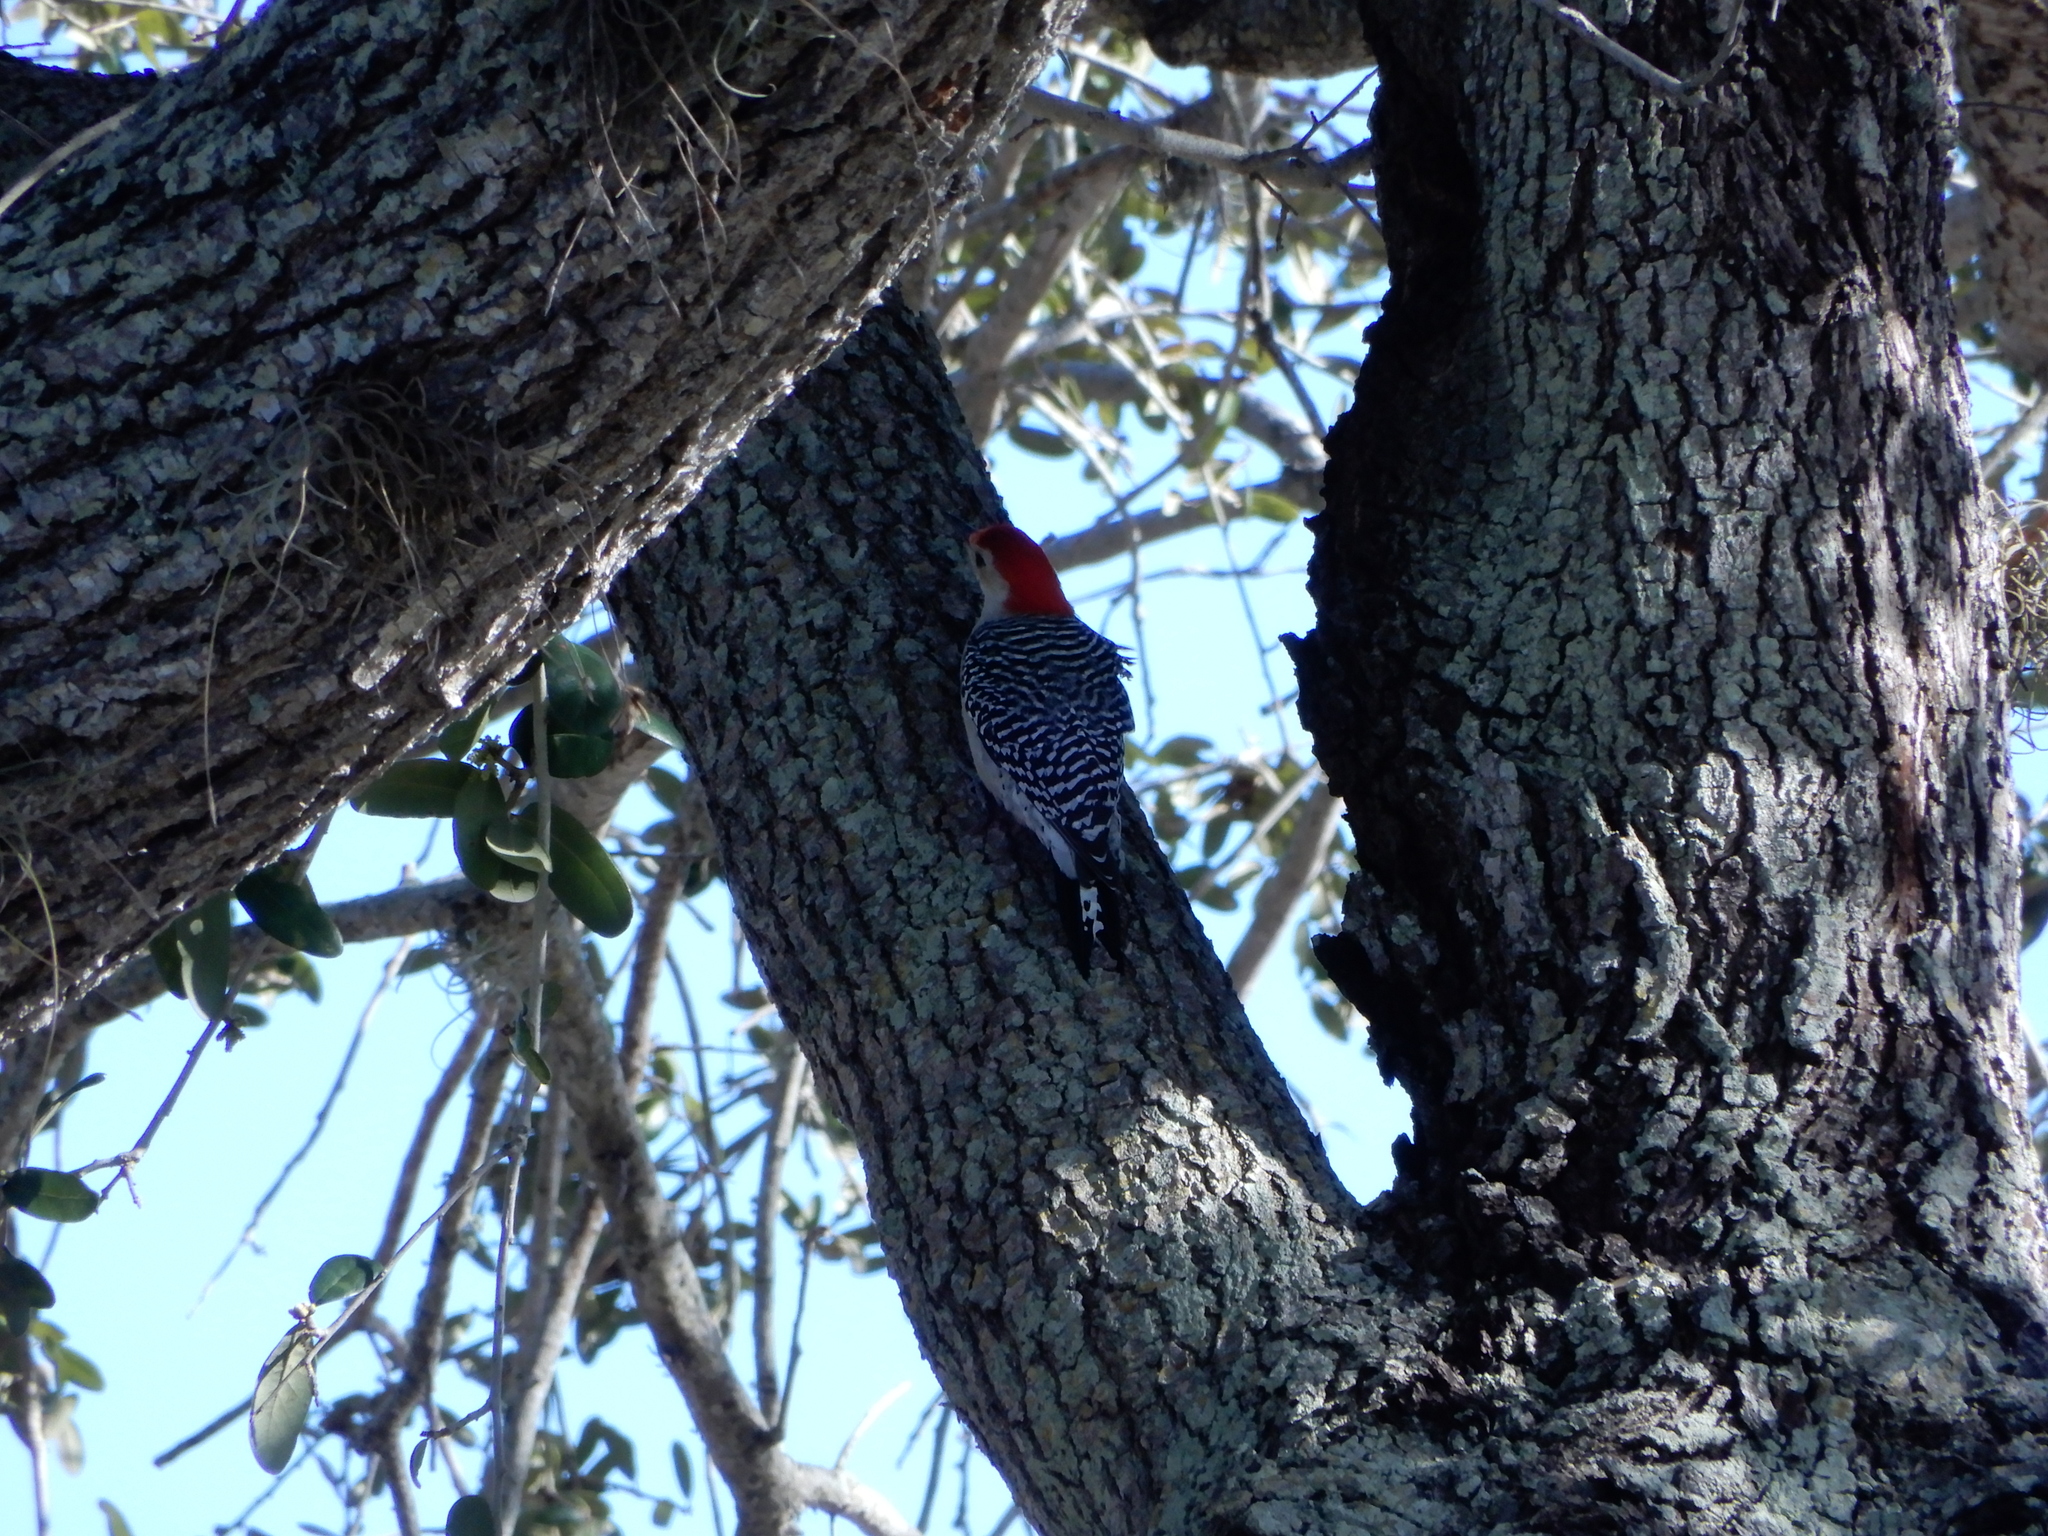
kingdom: Animalia
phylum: Chordata
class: Aves
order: Piciformes
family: Picidae
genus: Melanerpes
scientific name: Melanerpes carolinus
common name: Red-bellied woodpecker
